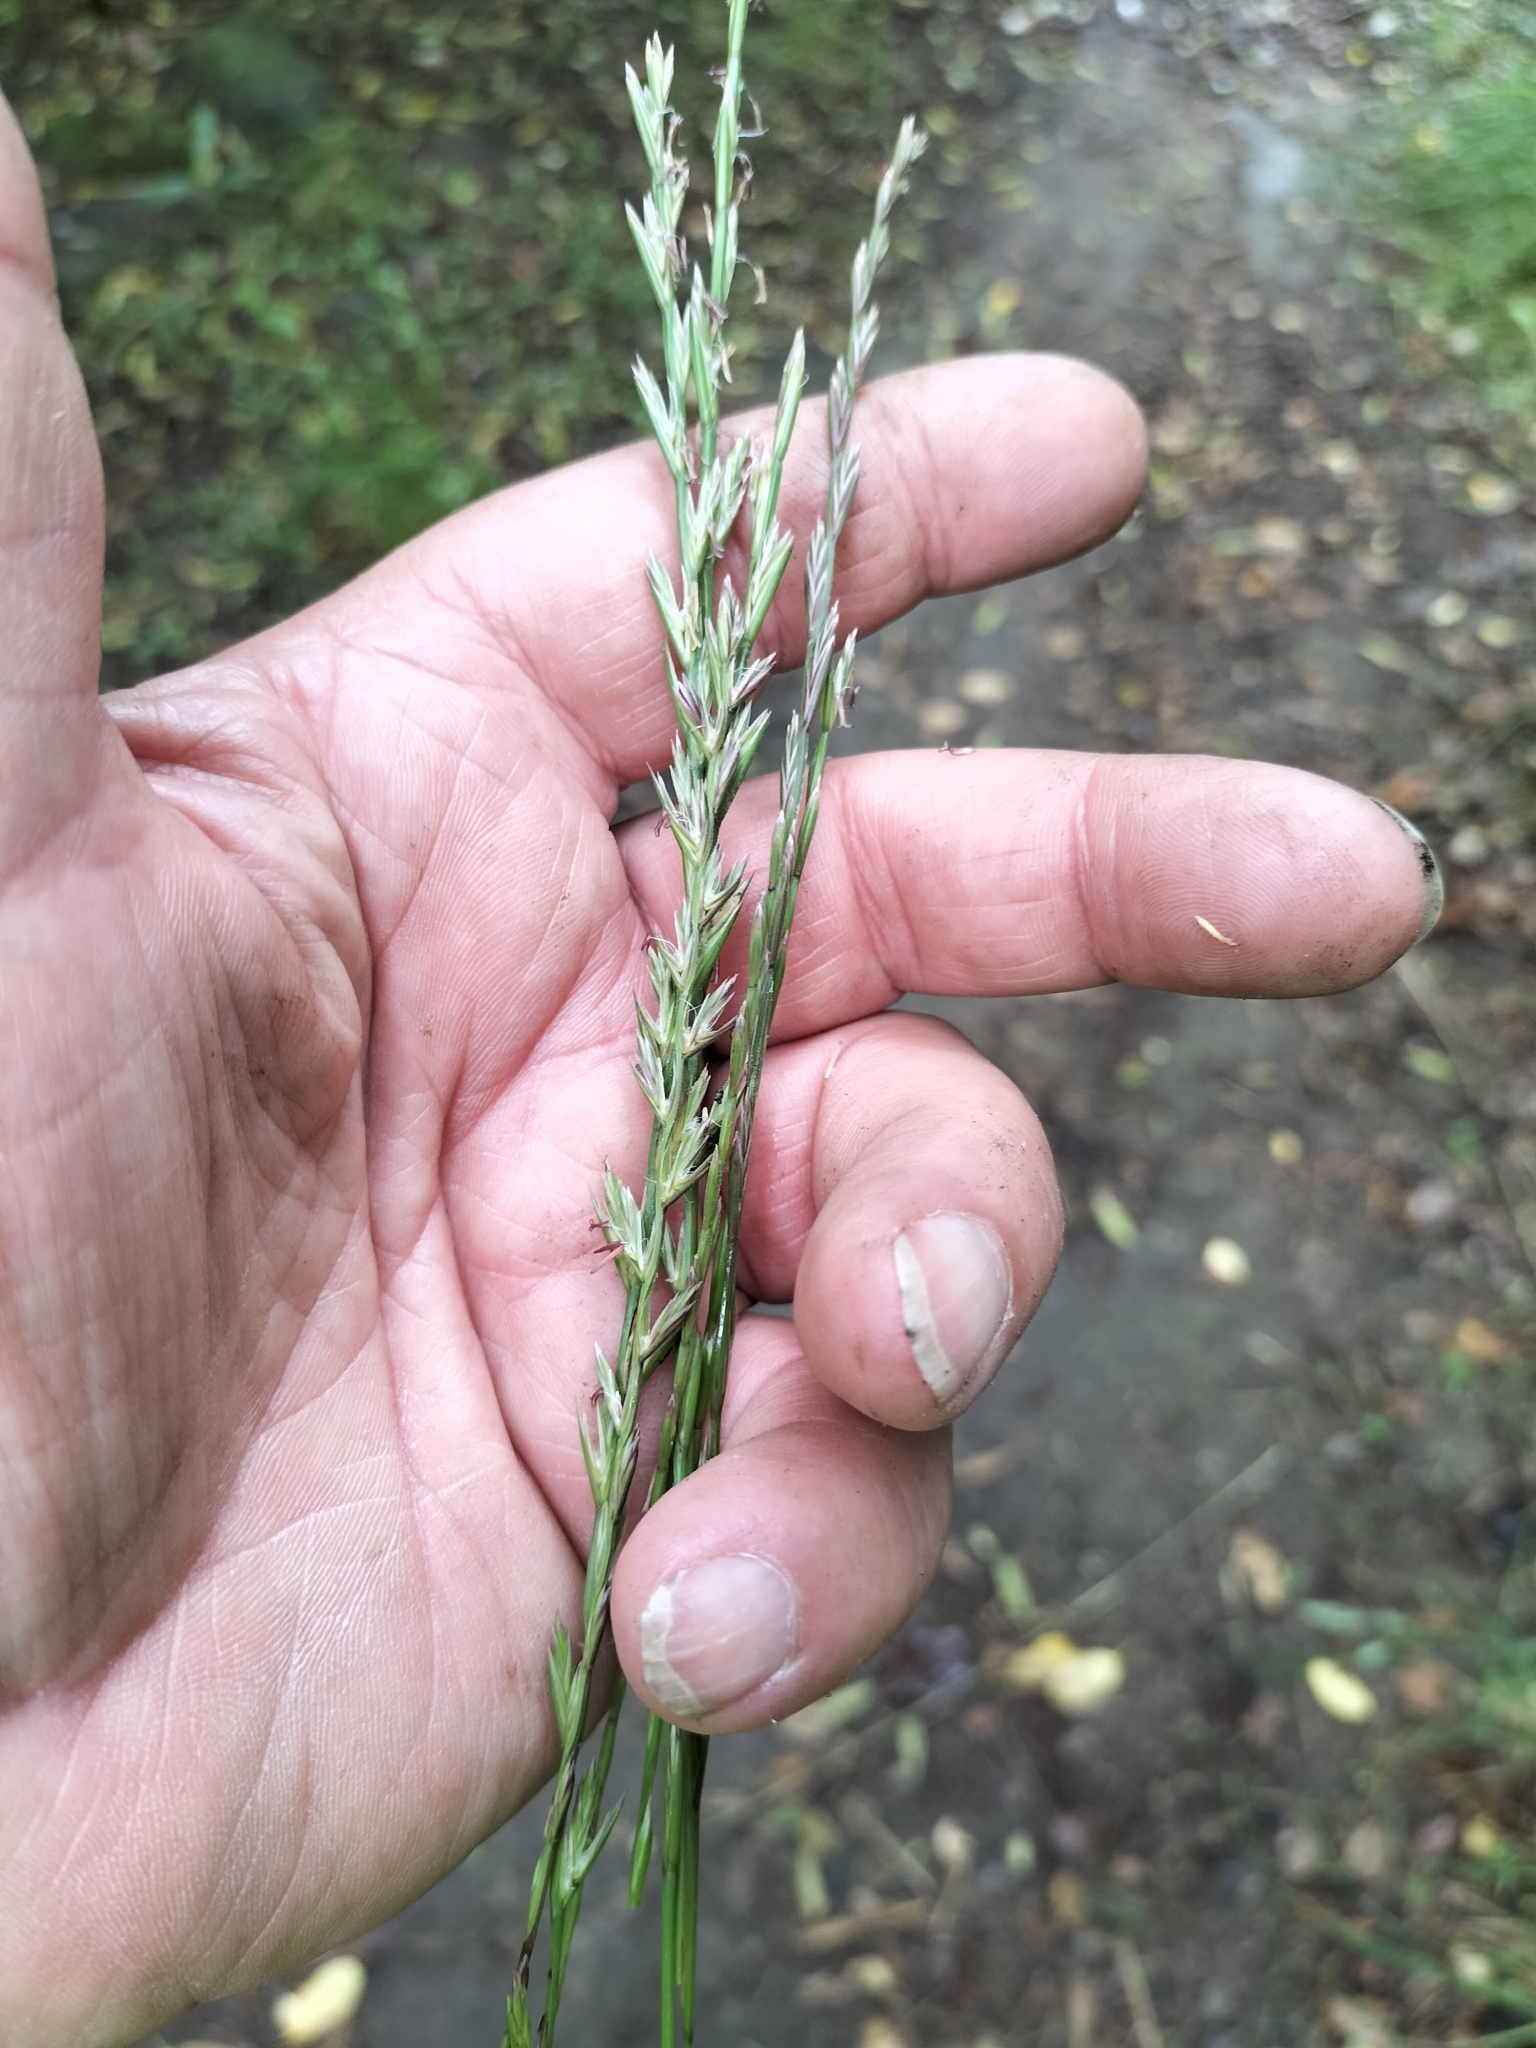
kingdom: Plantae
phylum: Tracheophyta
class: Liliopsida
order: Poales
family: Poaceae
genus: Lolium
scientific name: Lolium perenne
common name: Perennial ryegrass
